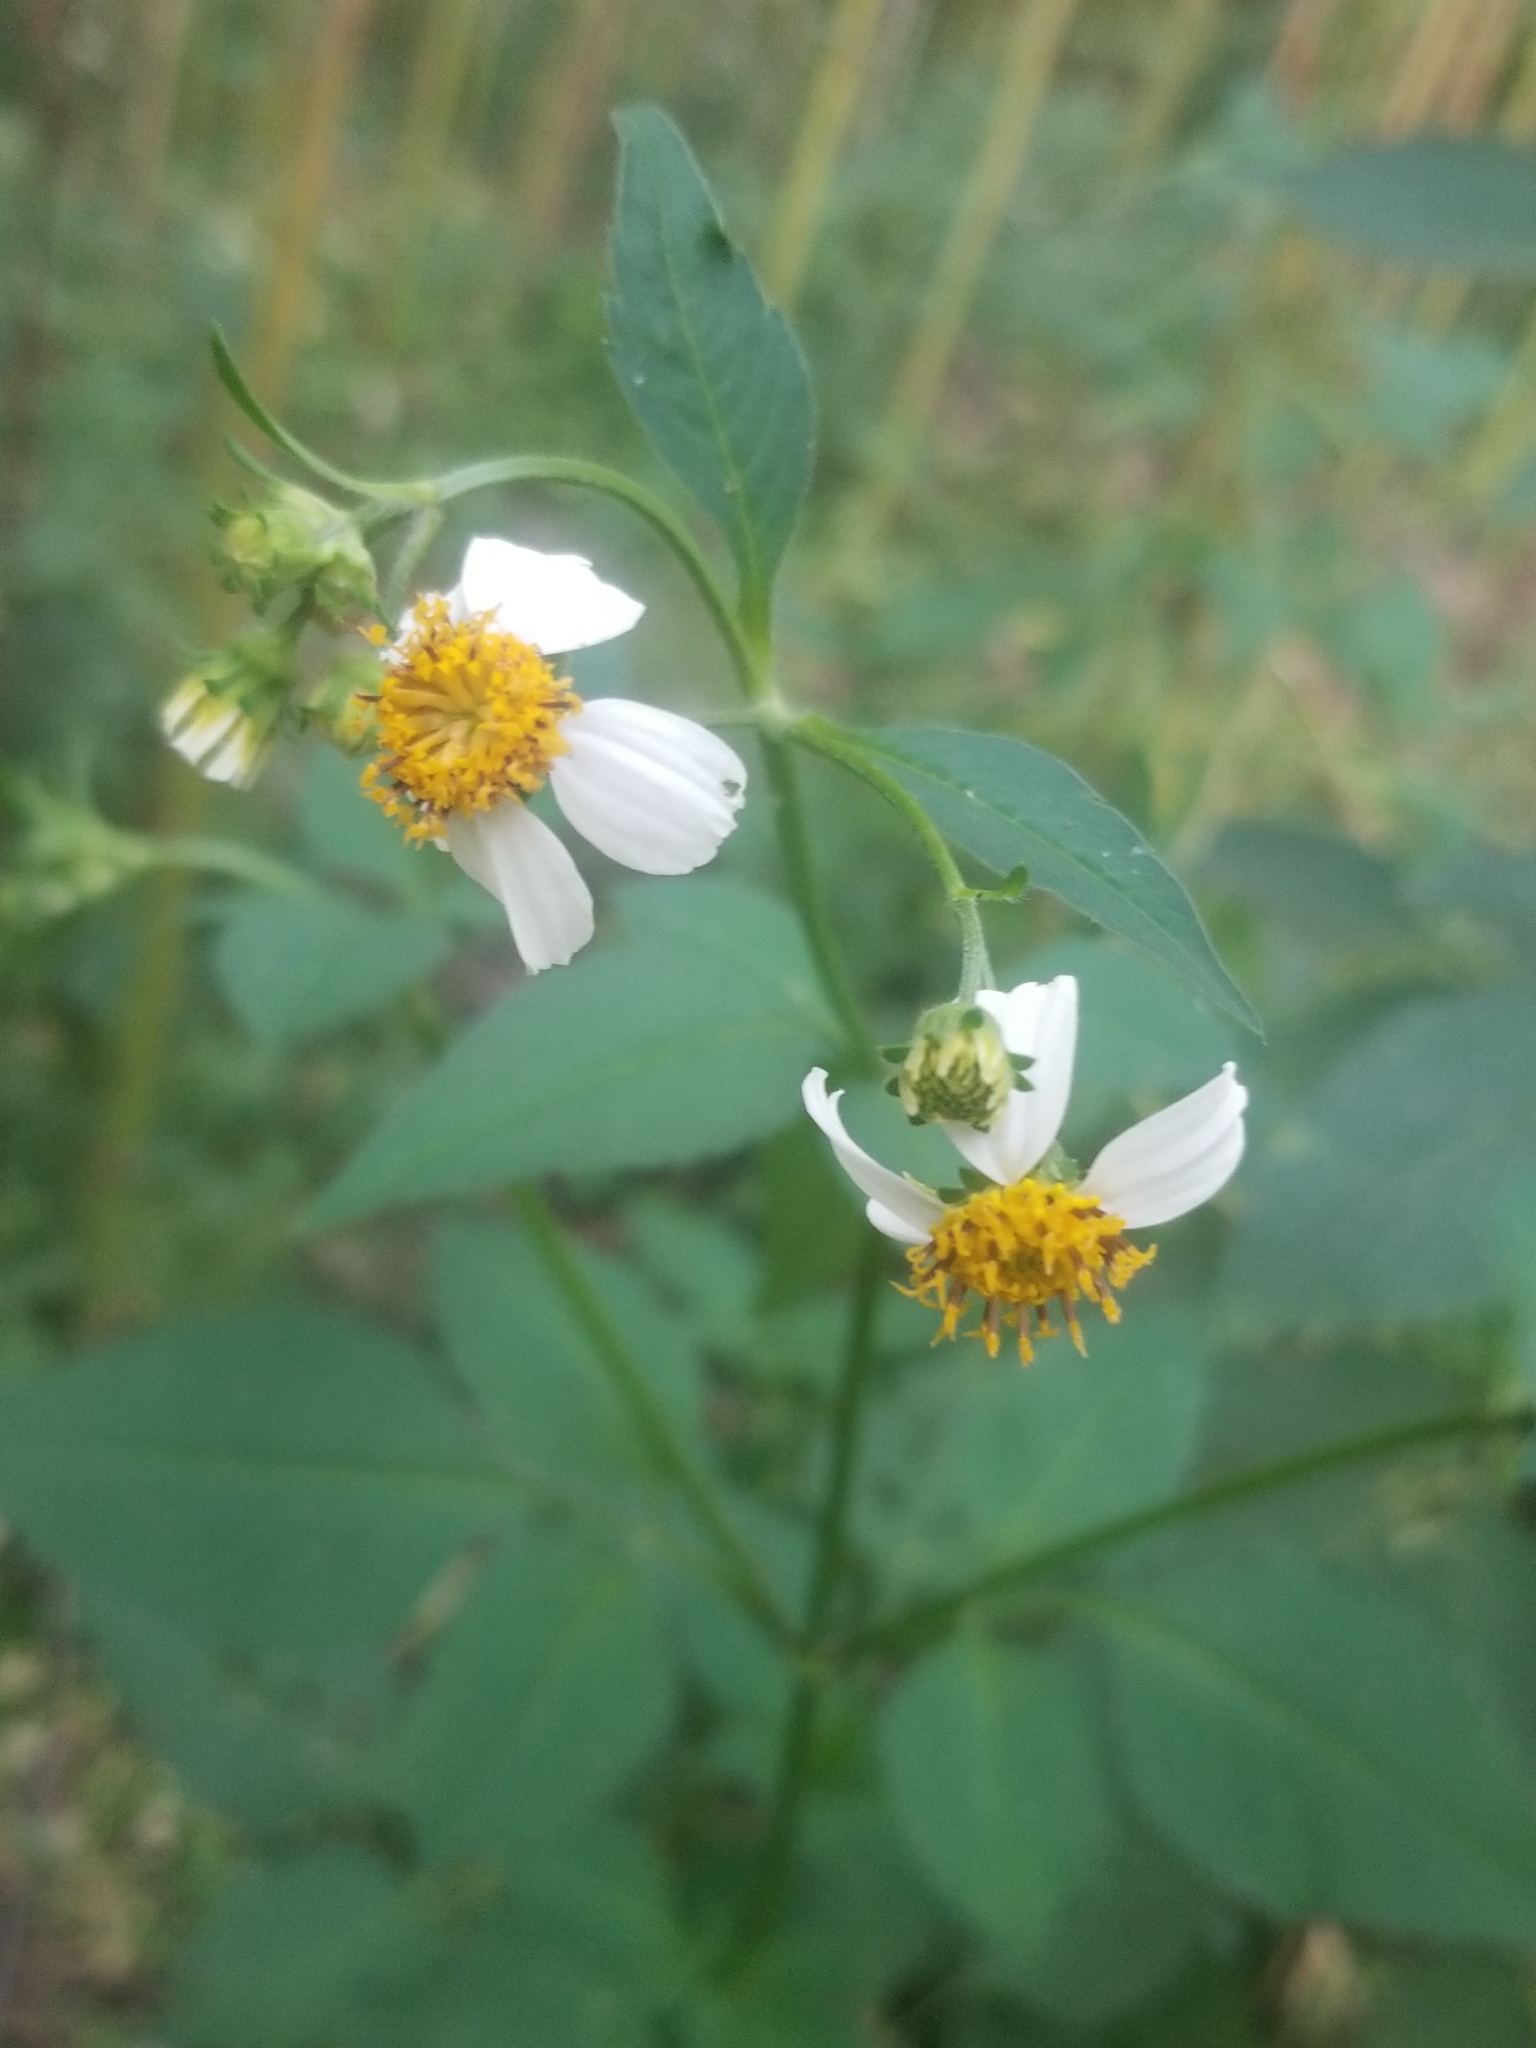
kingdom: Plantae
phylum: Tracheophyta
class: Magnoliopsida
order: Asterales
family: Asteraceae
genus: Bidens
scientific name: Bidens alba
